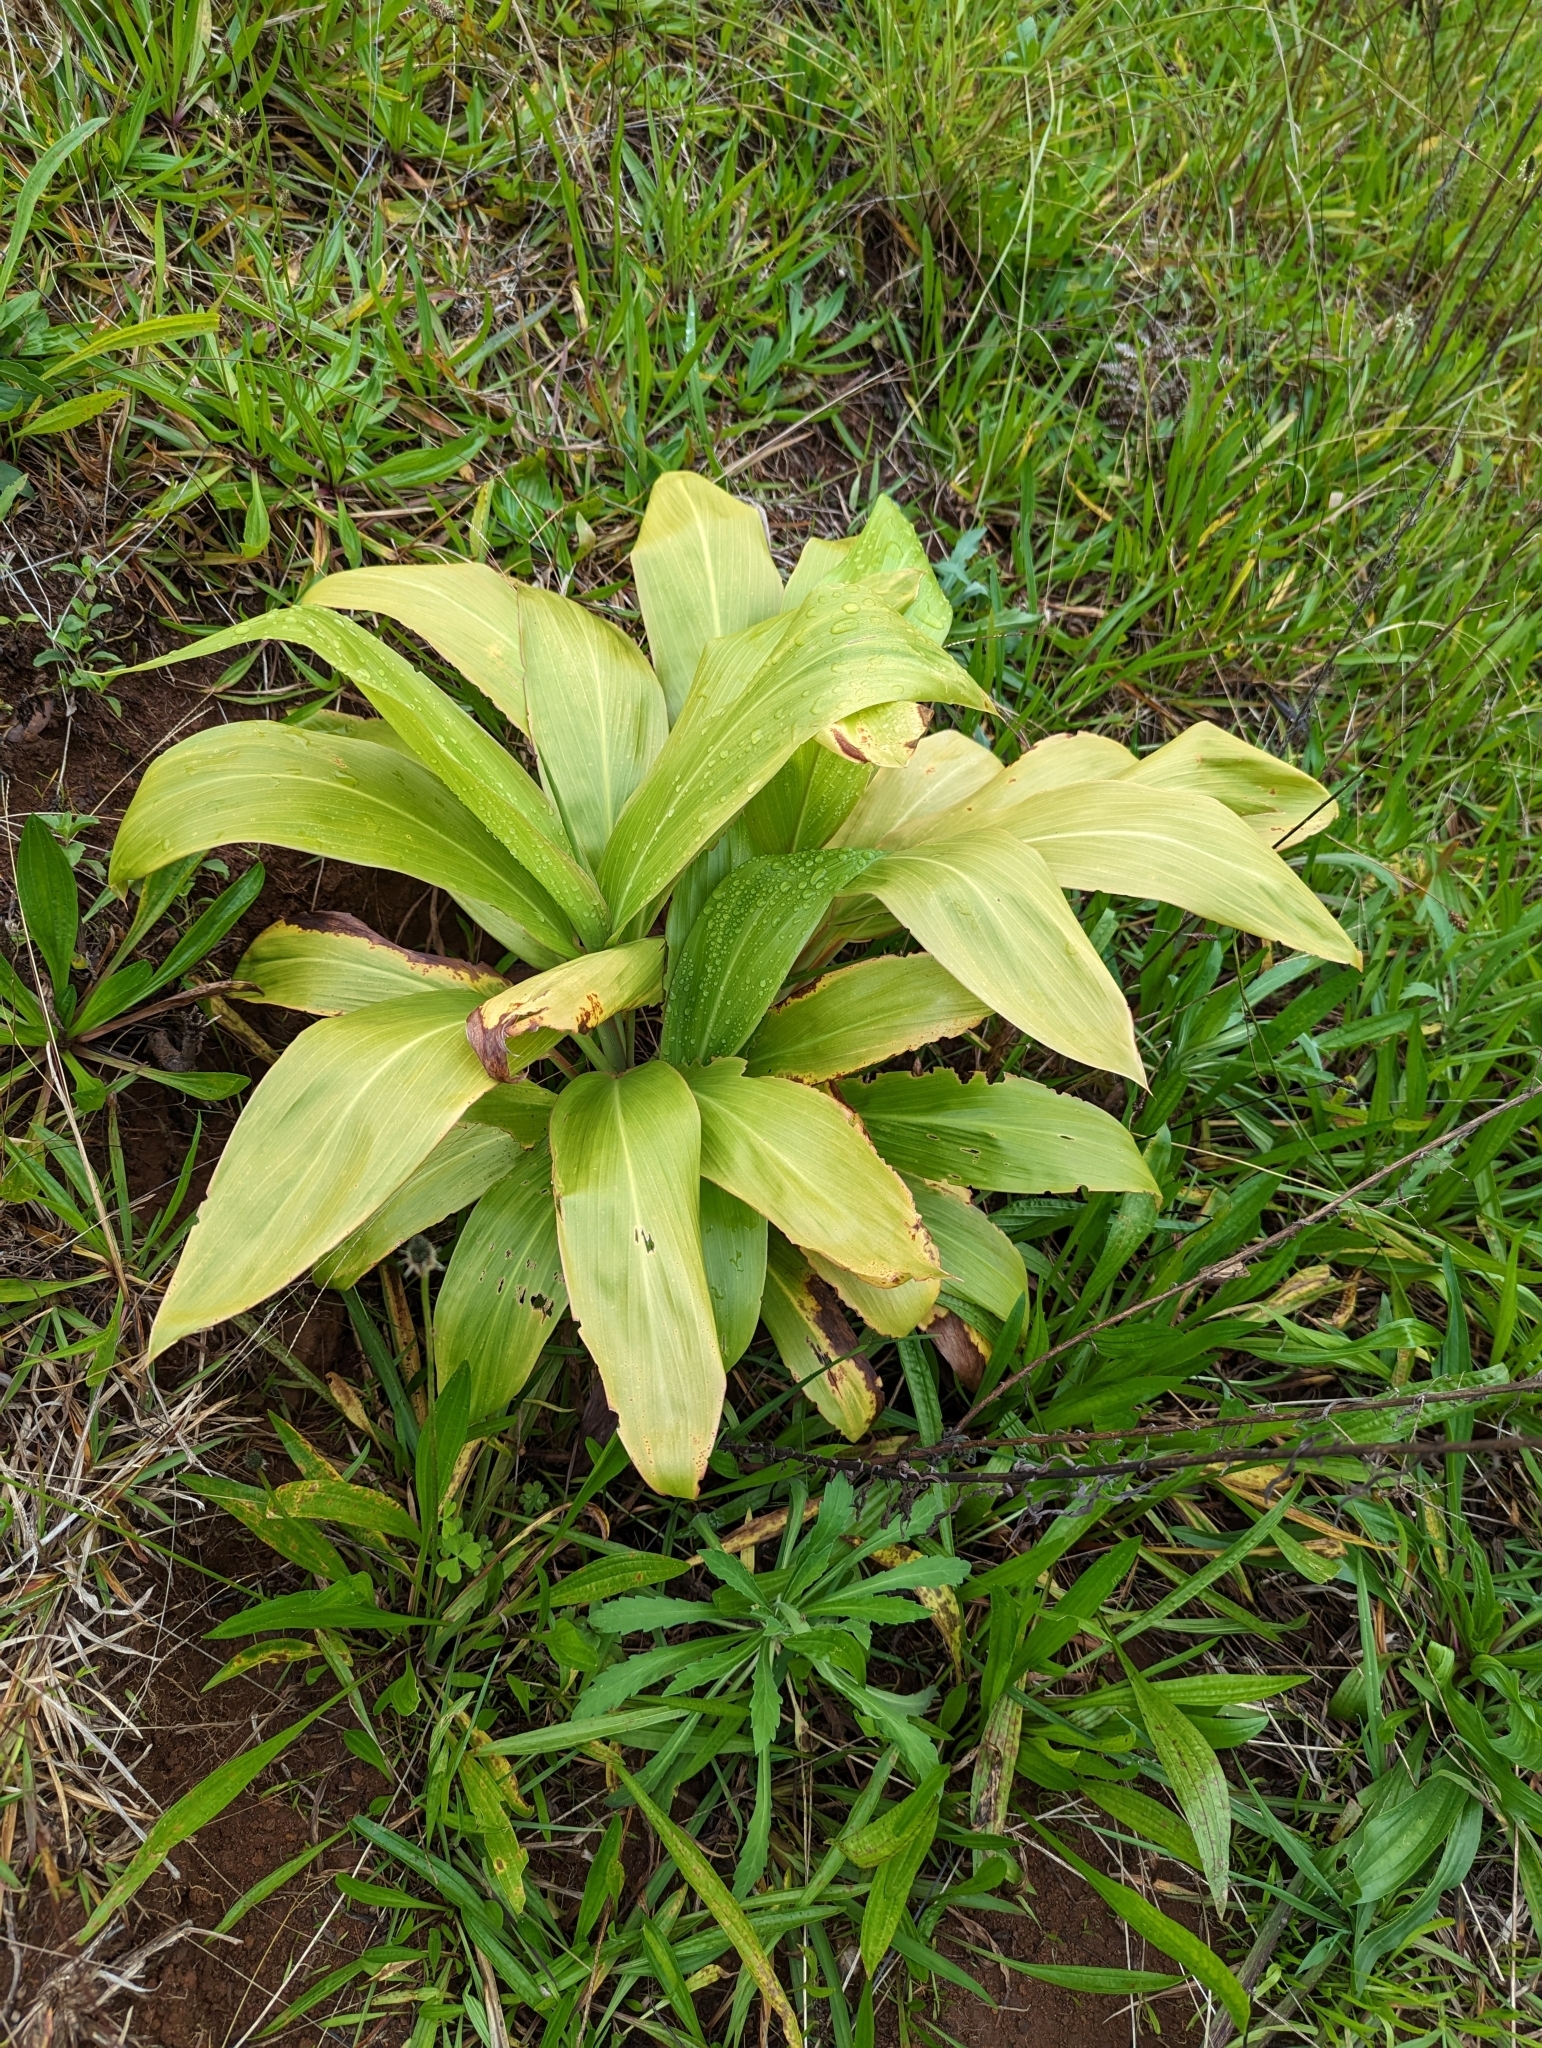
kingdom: Plantae
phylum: Tracheophyta
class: Liliopsida
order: Asparagales
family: Asparagaceae
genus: Cordyline
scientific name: Cordyline fruticosa
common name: Good-luck-plant
